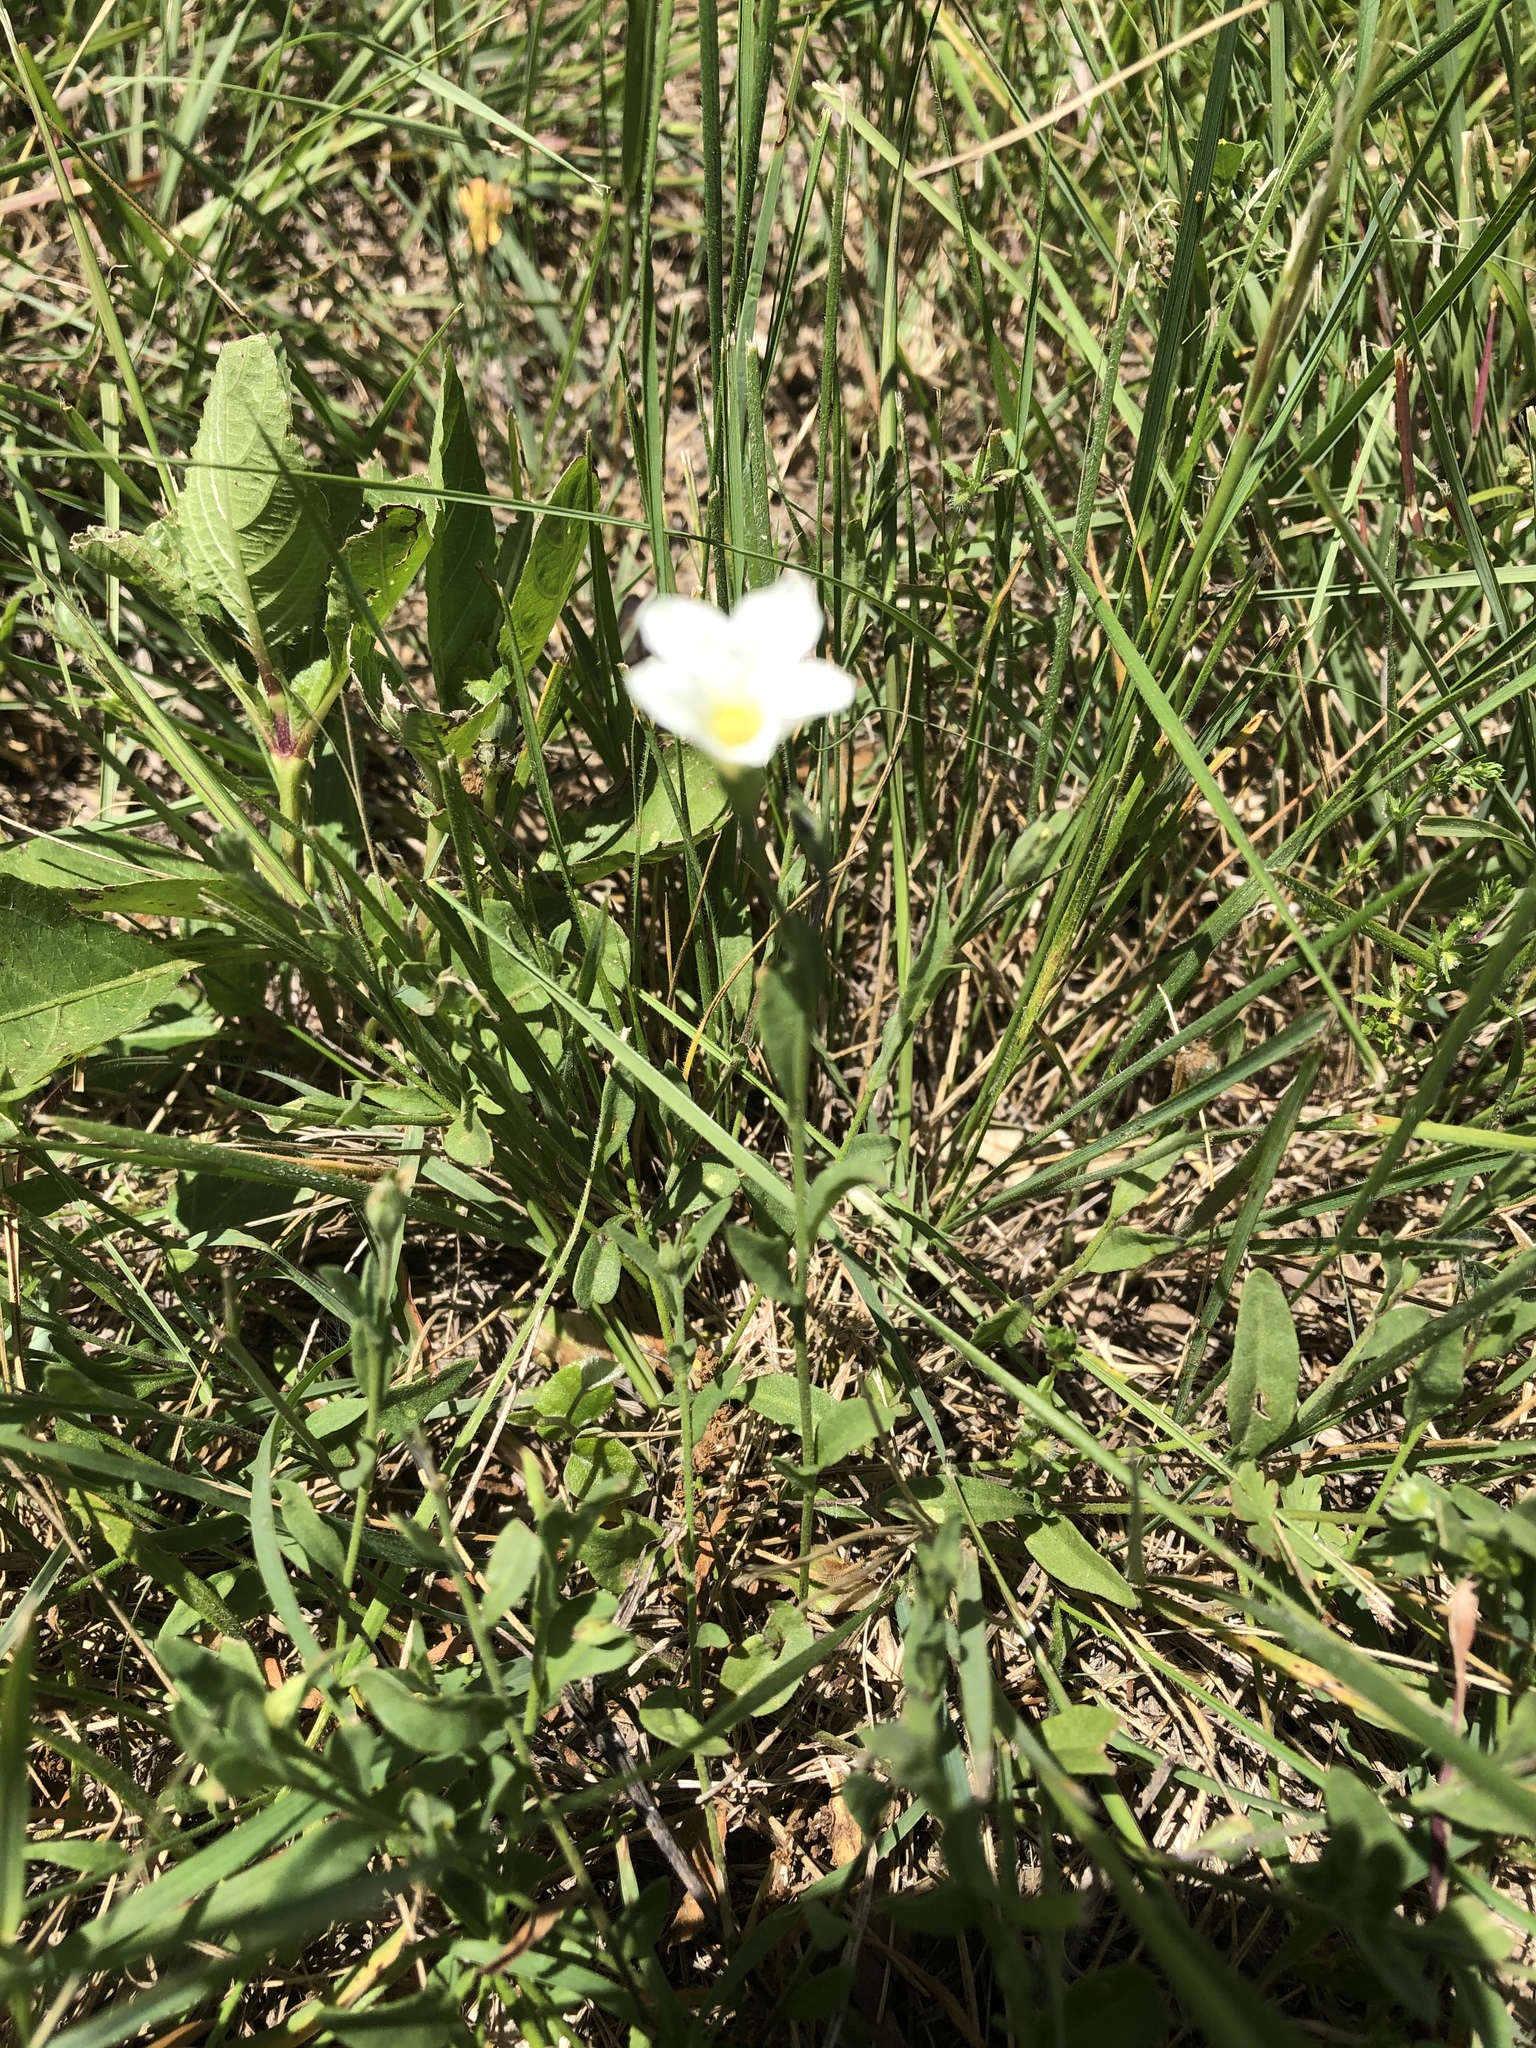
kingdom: Plantae
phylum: Tracheophyta
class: Magnoliopsida
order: Solanales
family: Solanaceae
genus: Salpiglossis
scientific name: Salpiglossis erecta
